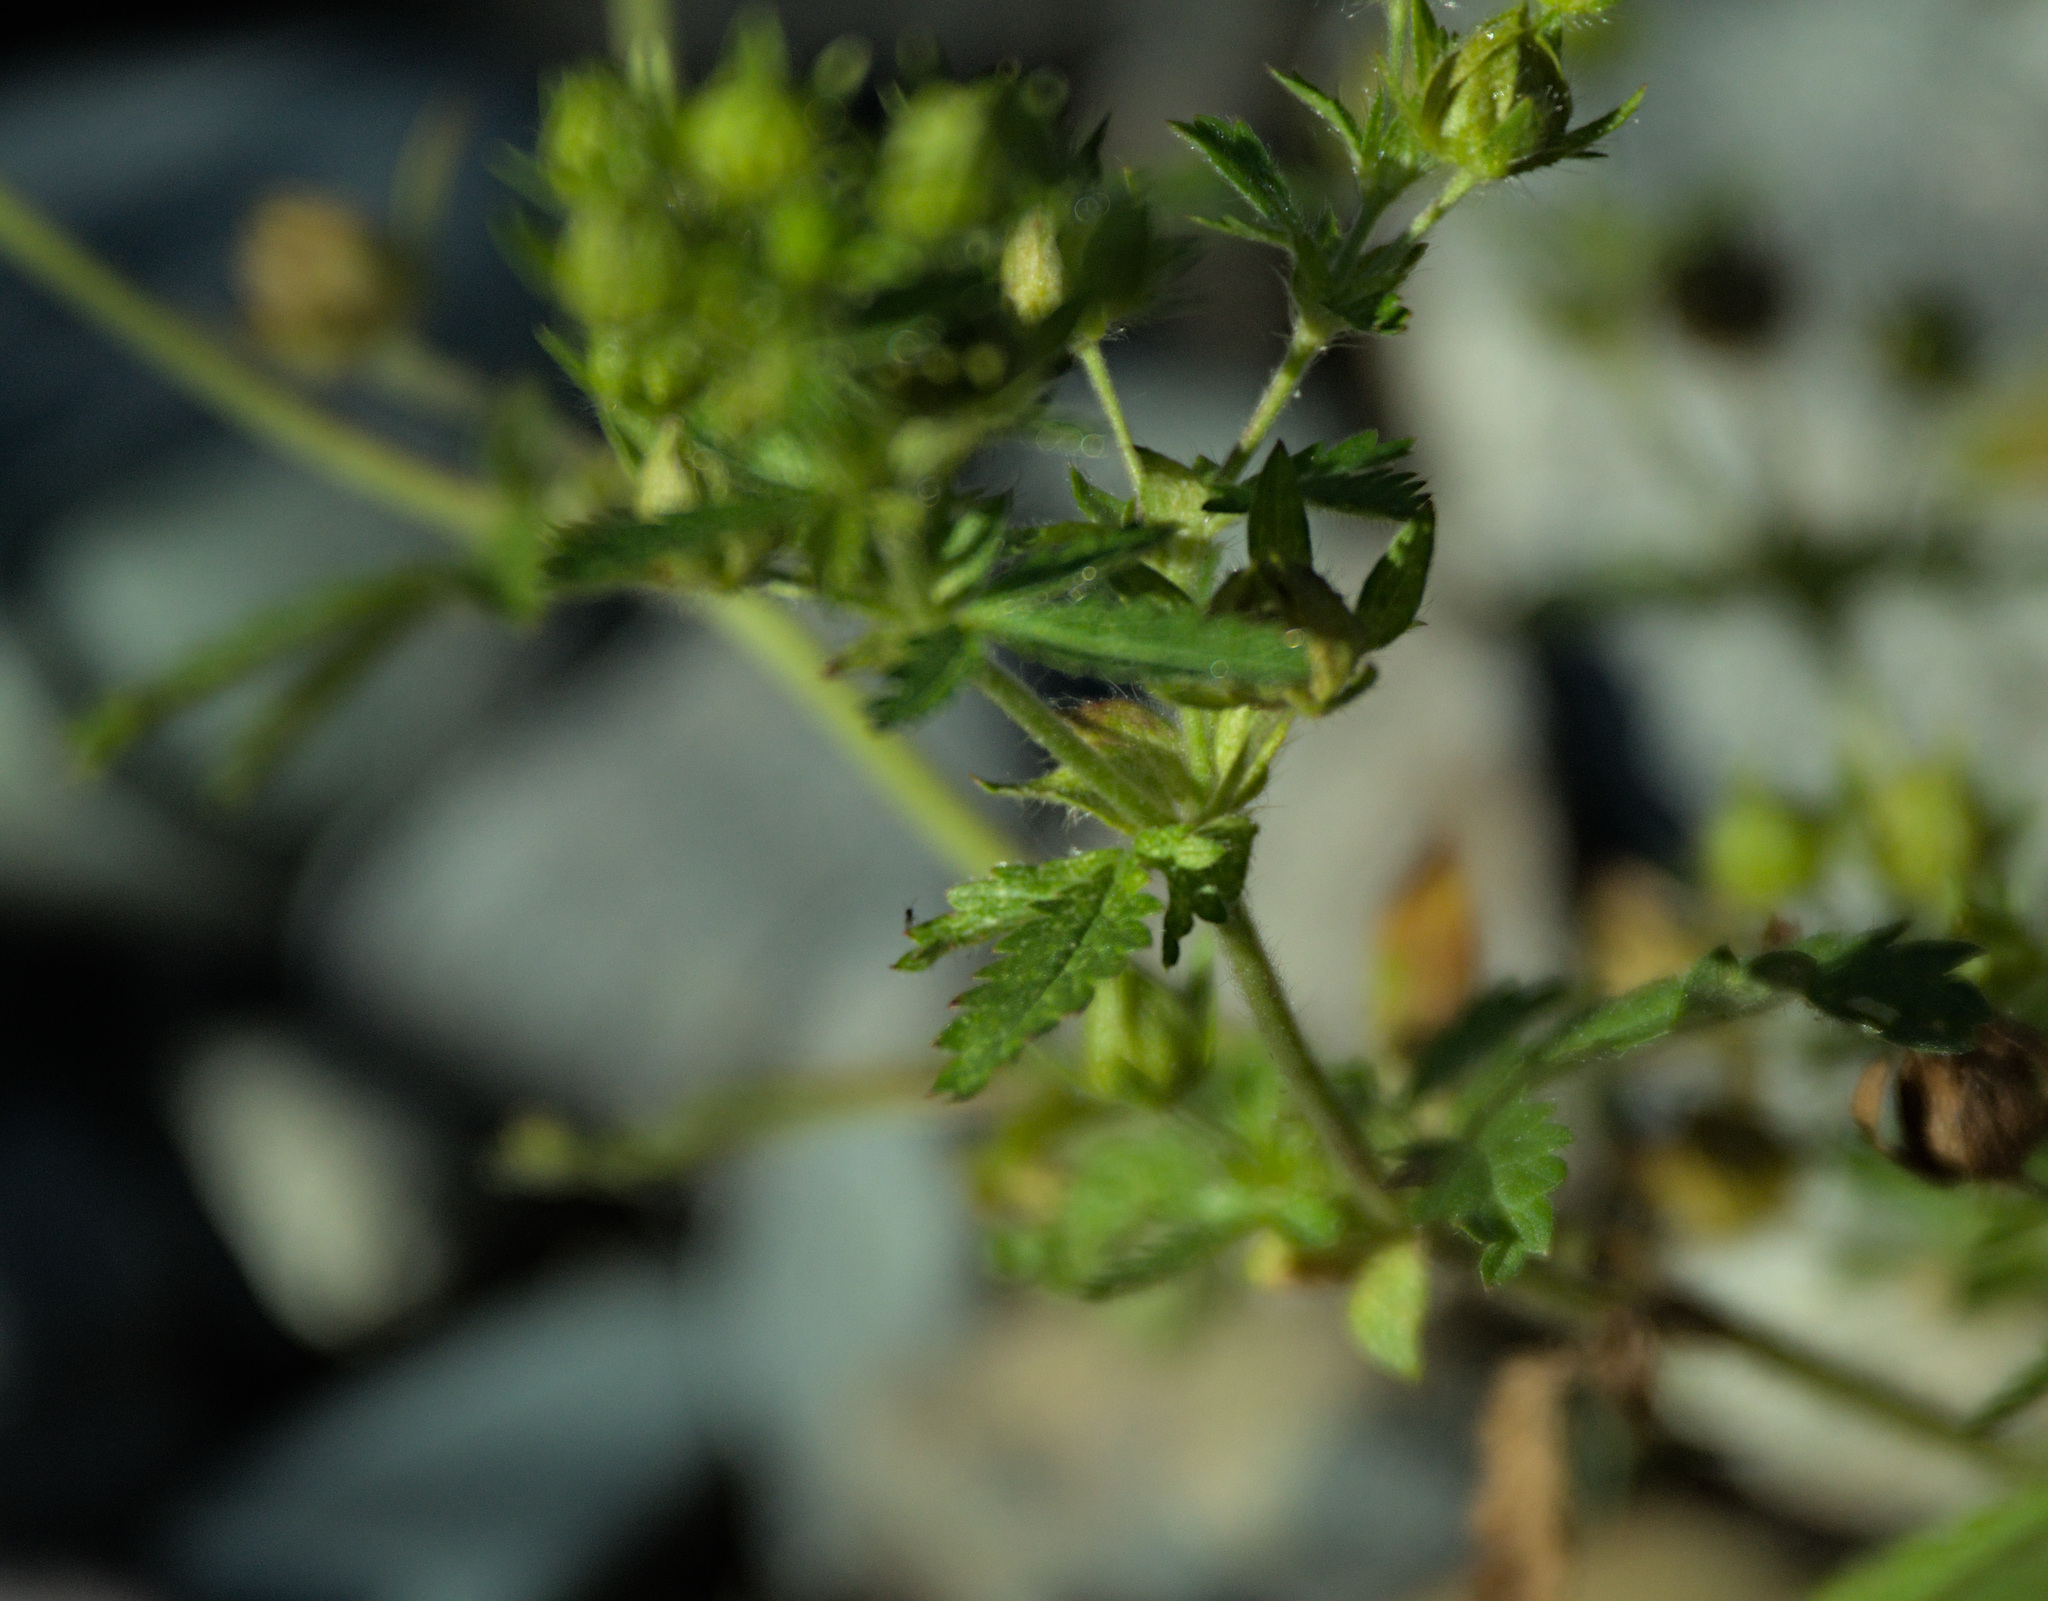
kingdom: Plantae
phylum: Tracheophyta
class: Magnoliopsida
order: Rosales
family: Rosaceae
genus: Potentilla
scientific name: Potentilla norvegica
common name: Ternate-leaved cinquefoil
